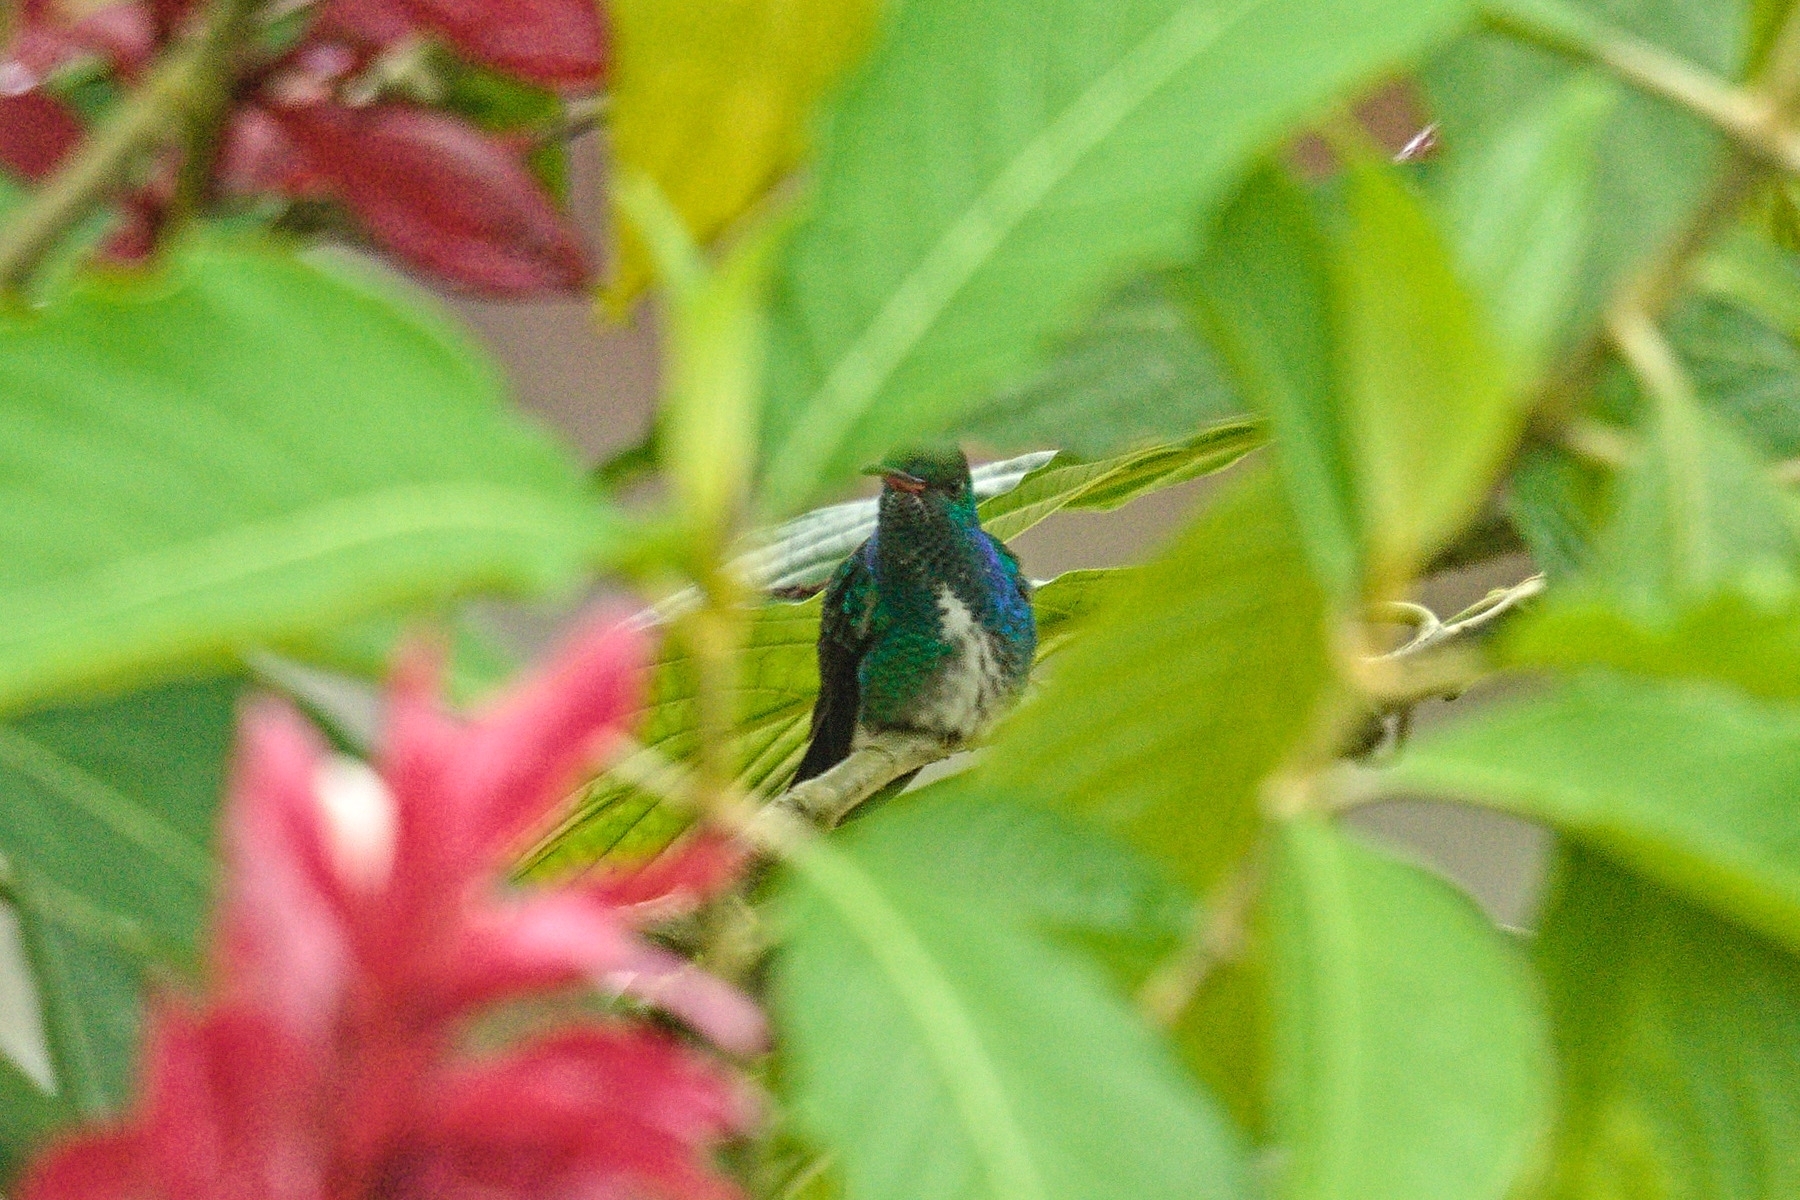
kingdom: Animalia
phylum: Chordata
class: Aves
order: Apodiformes
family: Trochilidae
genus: Chionomesa
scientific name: Chionomesa fimbriata
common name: Glittering-throated emerald
